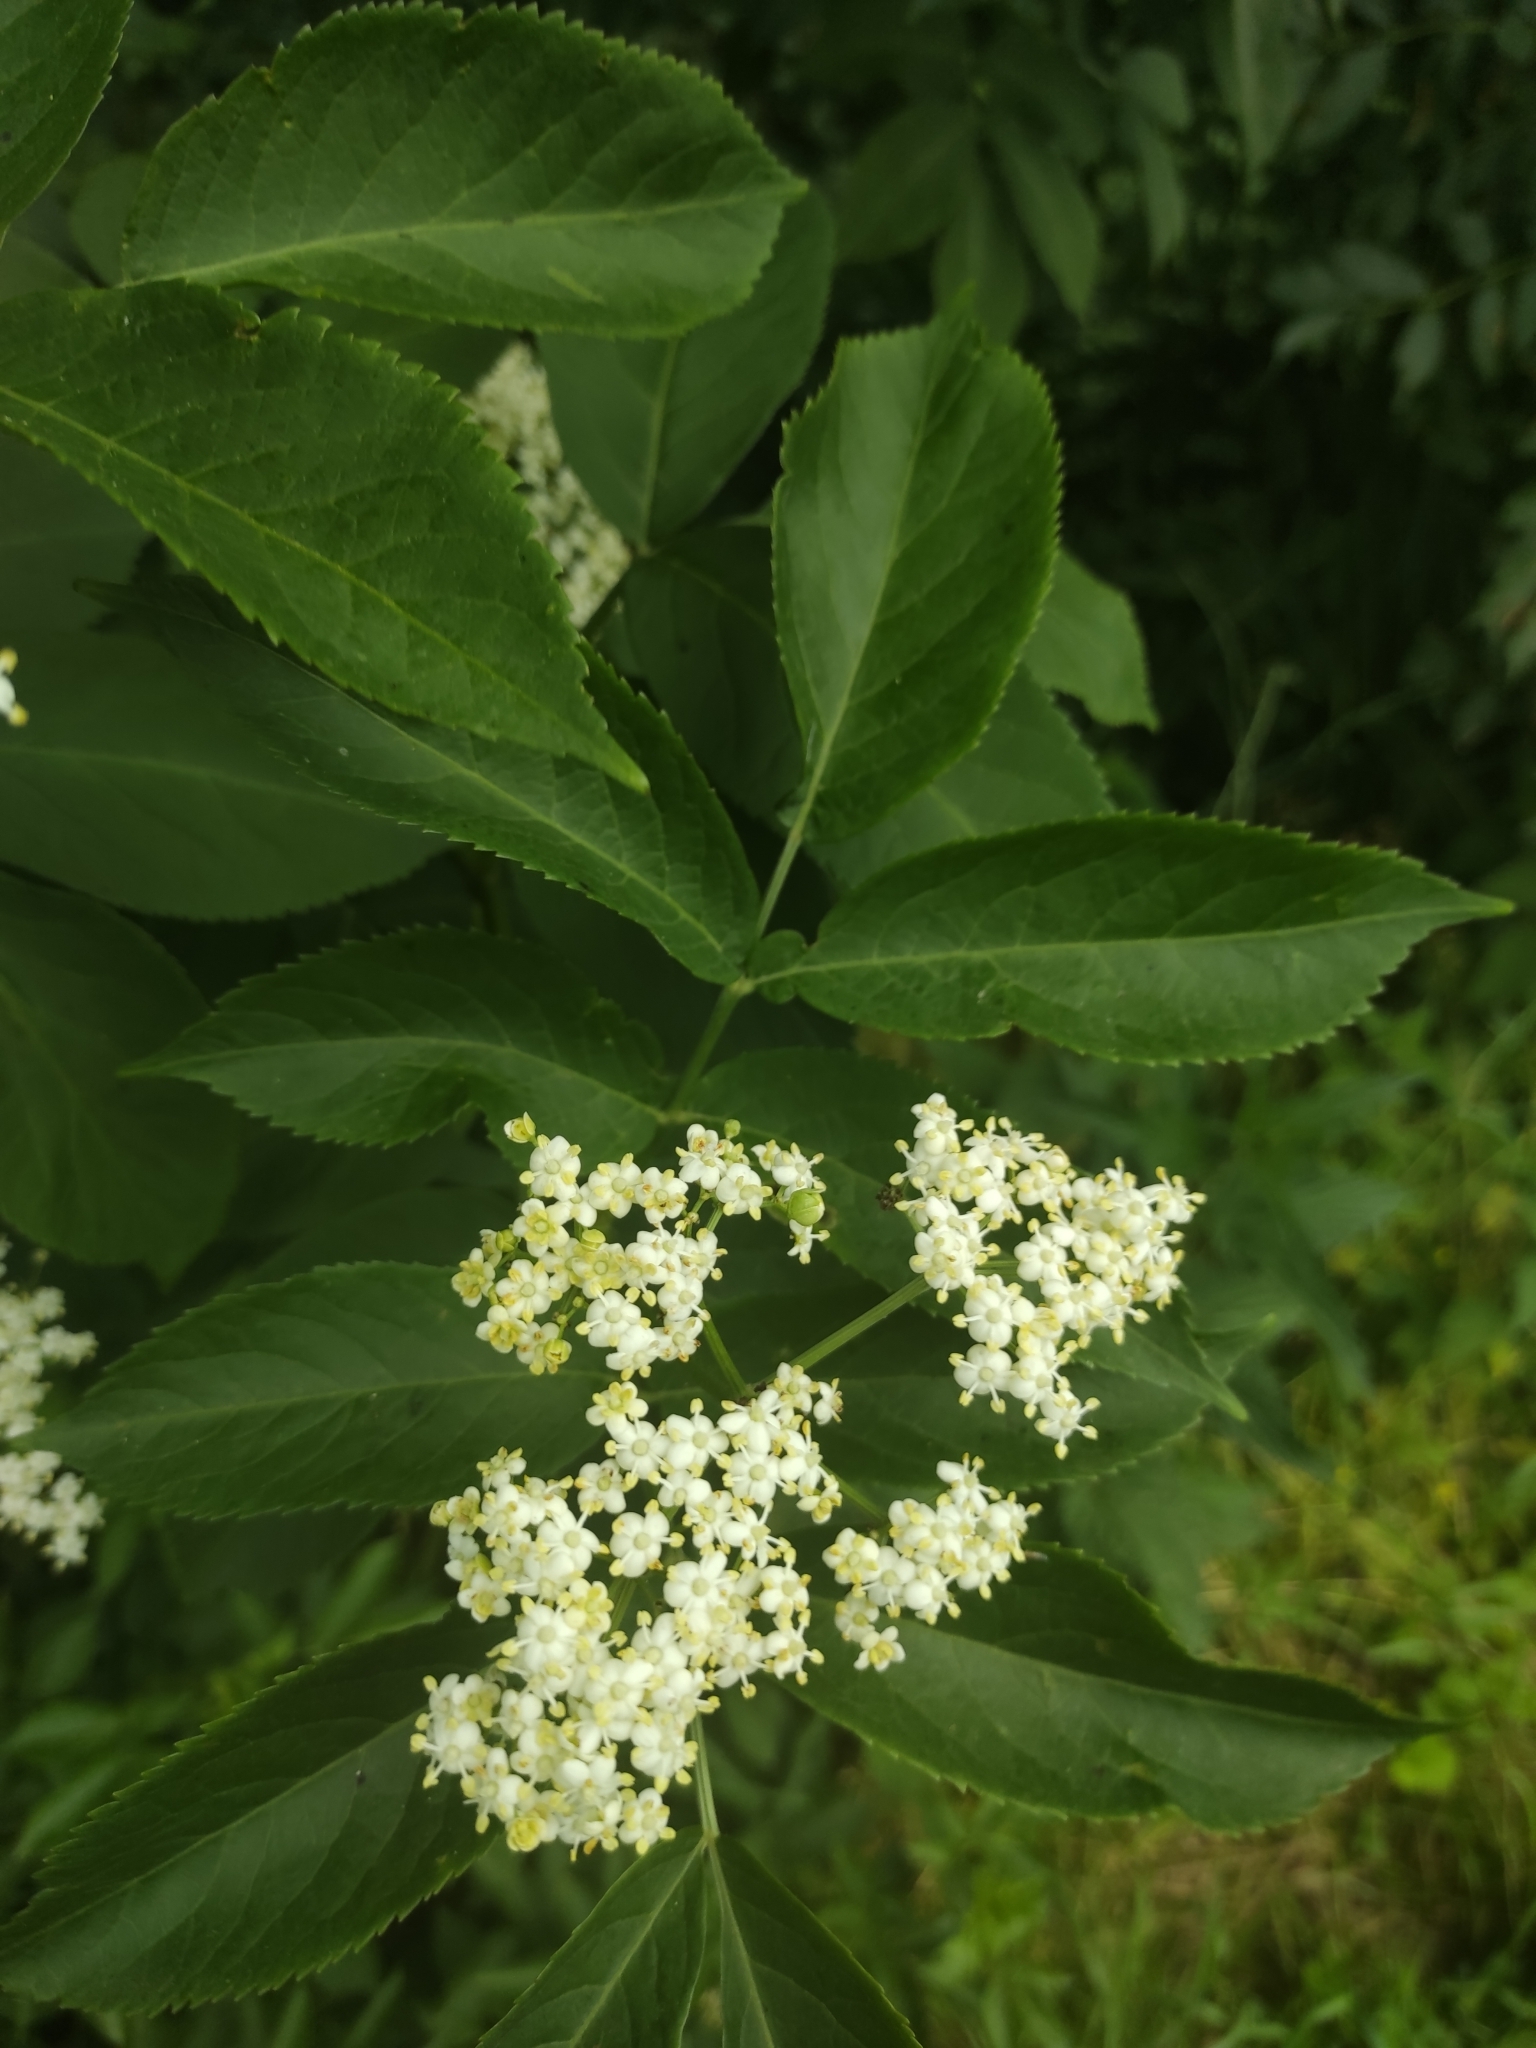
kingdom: Plantae
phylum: Tracheophyta
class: Magnoliopsida
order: Dipsacales
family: Viburnaceae
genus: Sambucus
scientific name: Sambucus nigra
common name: Elder
